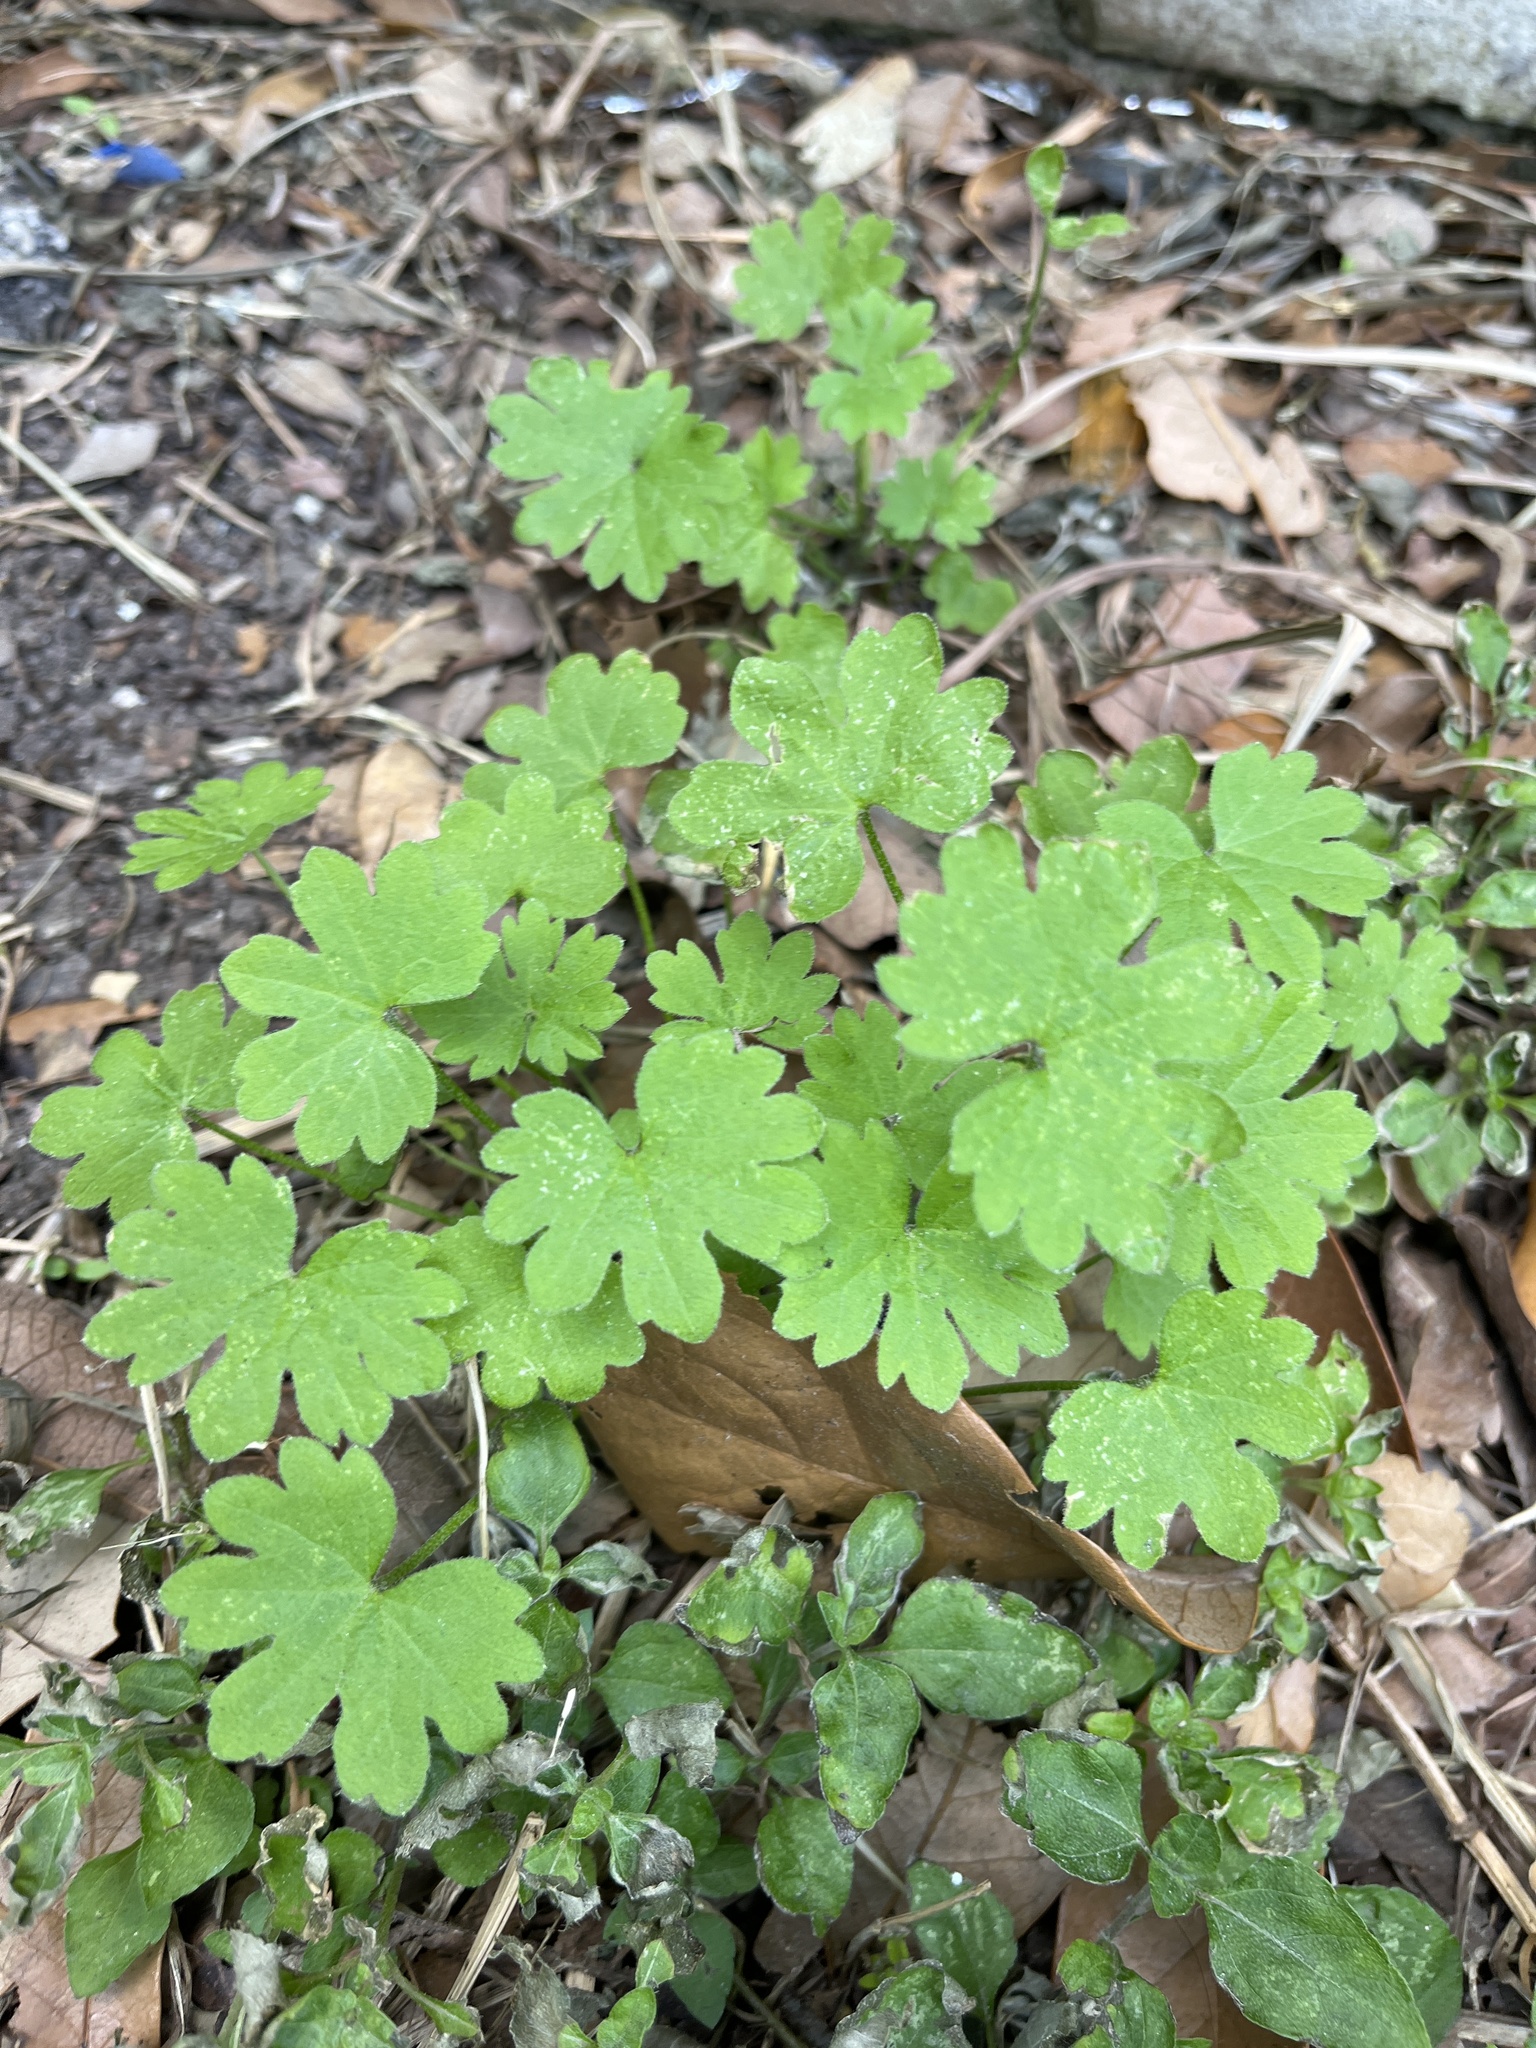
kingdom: Plantae
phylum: Tracheophyta
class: Magnoliopsida
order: Apiales
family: Apiaceae
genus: Bowlesia
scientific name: Bowlesia incana
